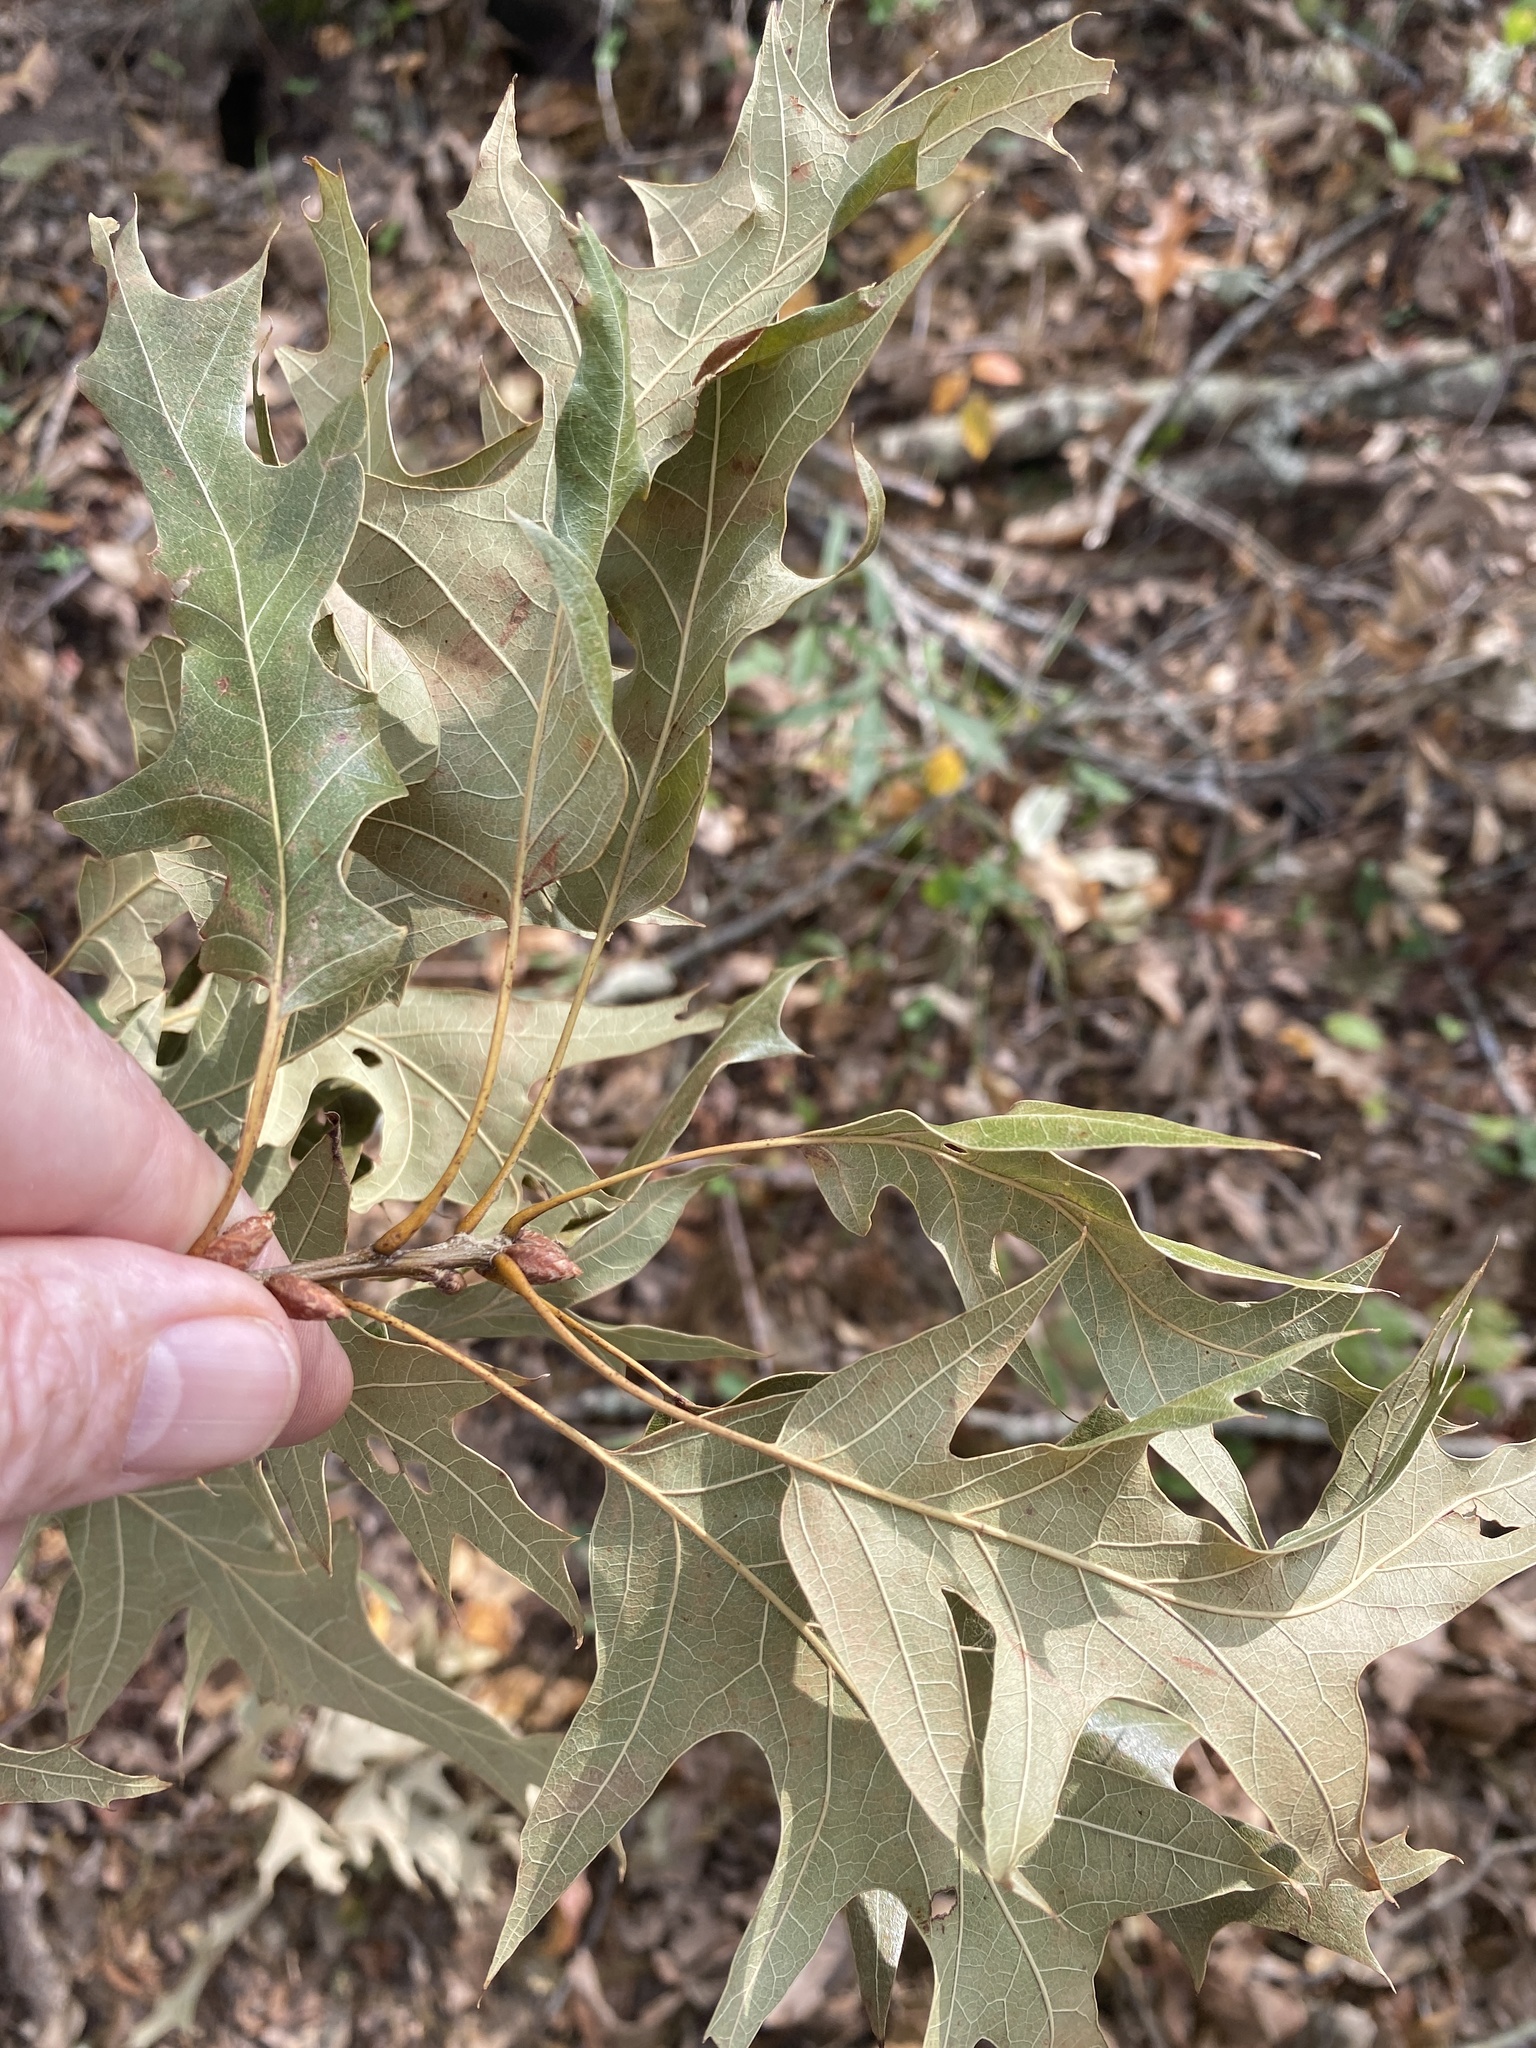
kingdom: Plantae
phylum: Tracheophyta
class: Magnoliopsida
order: Fagales
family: Fagaceae
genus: Quercus
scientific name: Quercus pagoda
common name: Cherrybark oak
